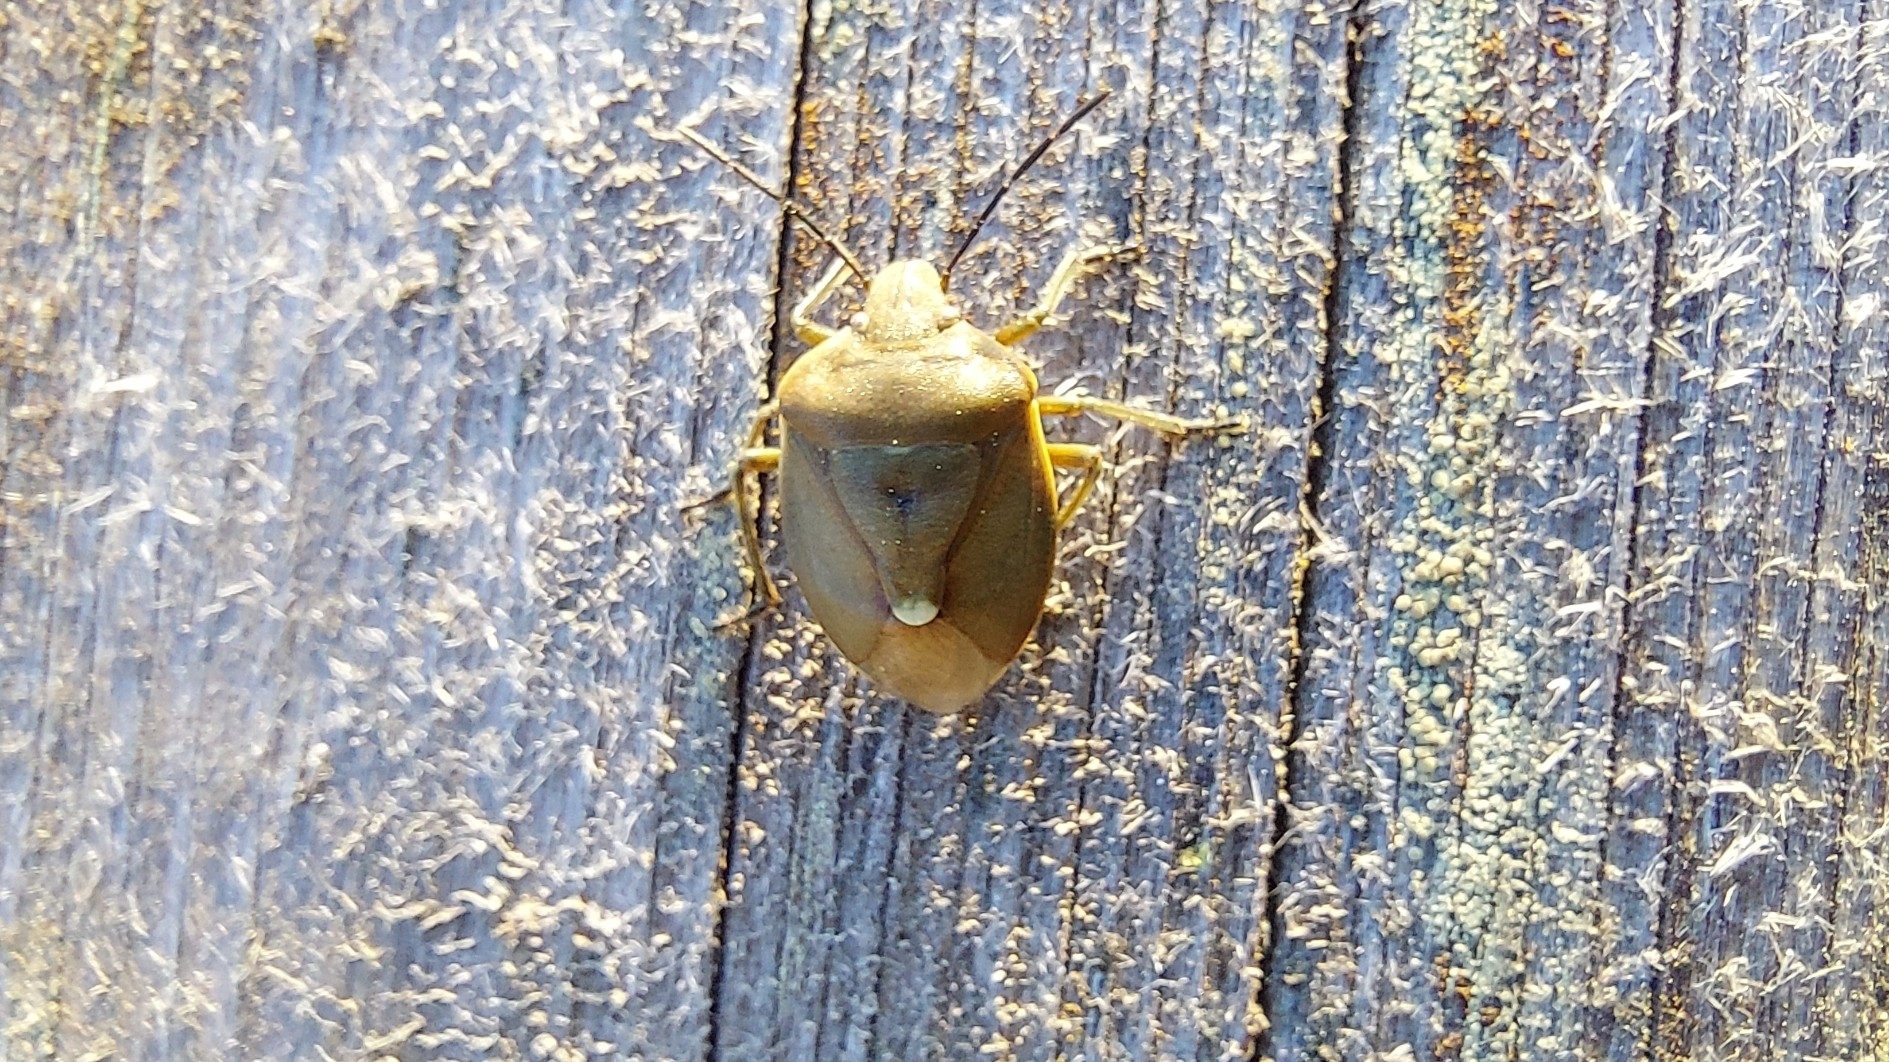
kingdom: Animalia
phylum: Arthropoda
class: Insecta
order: Hemiptera
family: Pentatomidae
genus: Chlorochroa
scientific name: Chlorochroa pinicola
